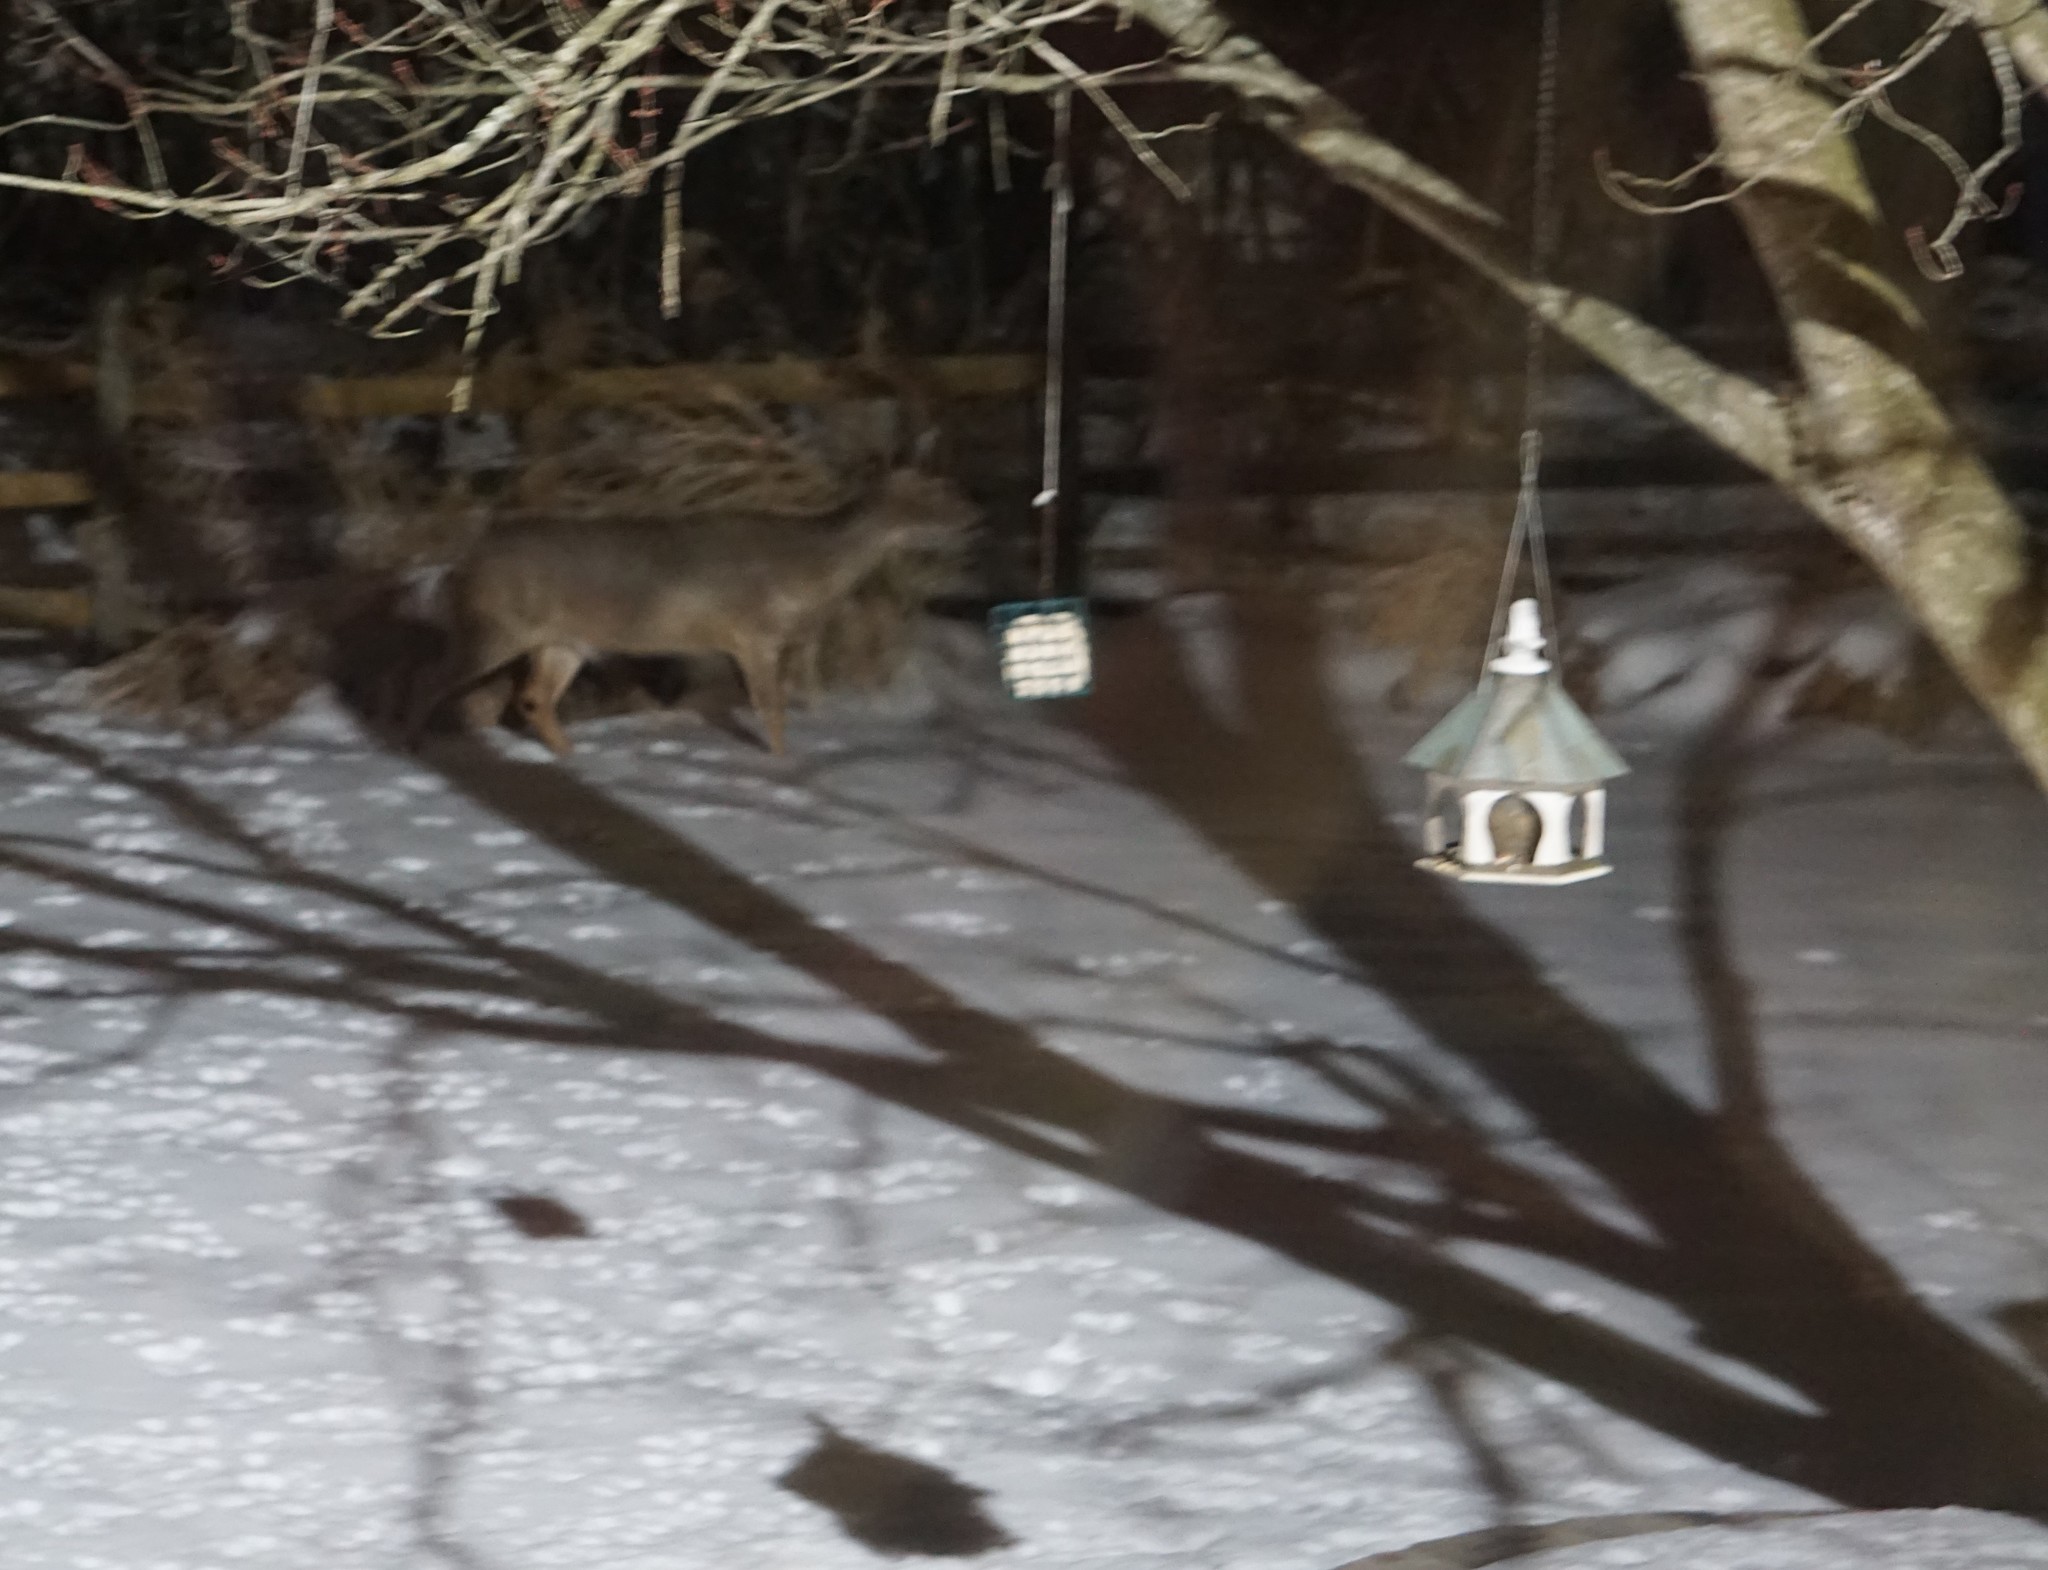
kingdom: Animalia
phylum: Chordata
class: Mammalia
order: Artiodactyla
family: Cervidae
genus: Odocoileus
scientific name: Odocoileus virginianus
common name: White-tailed deer
